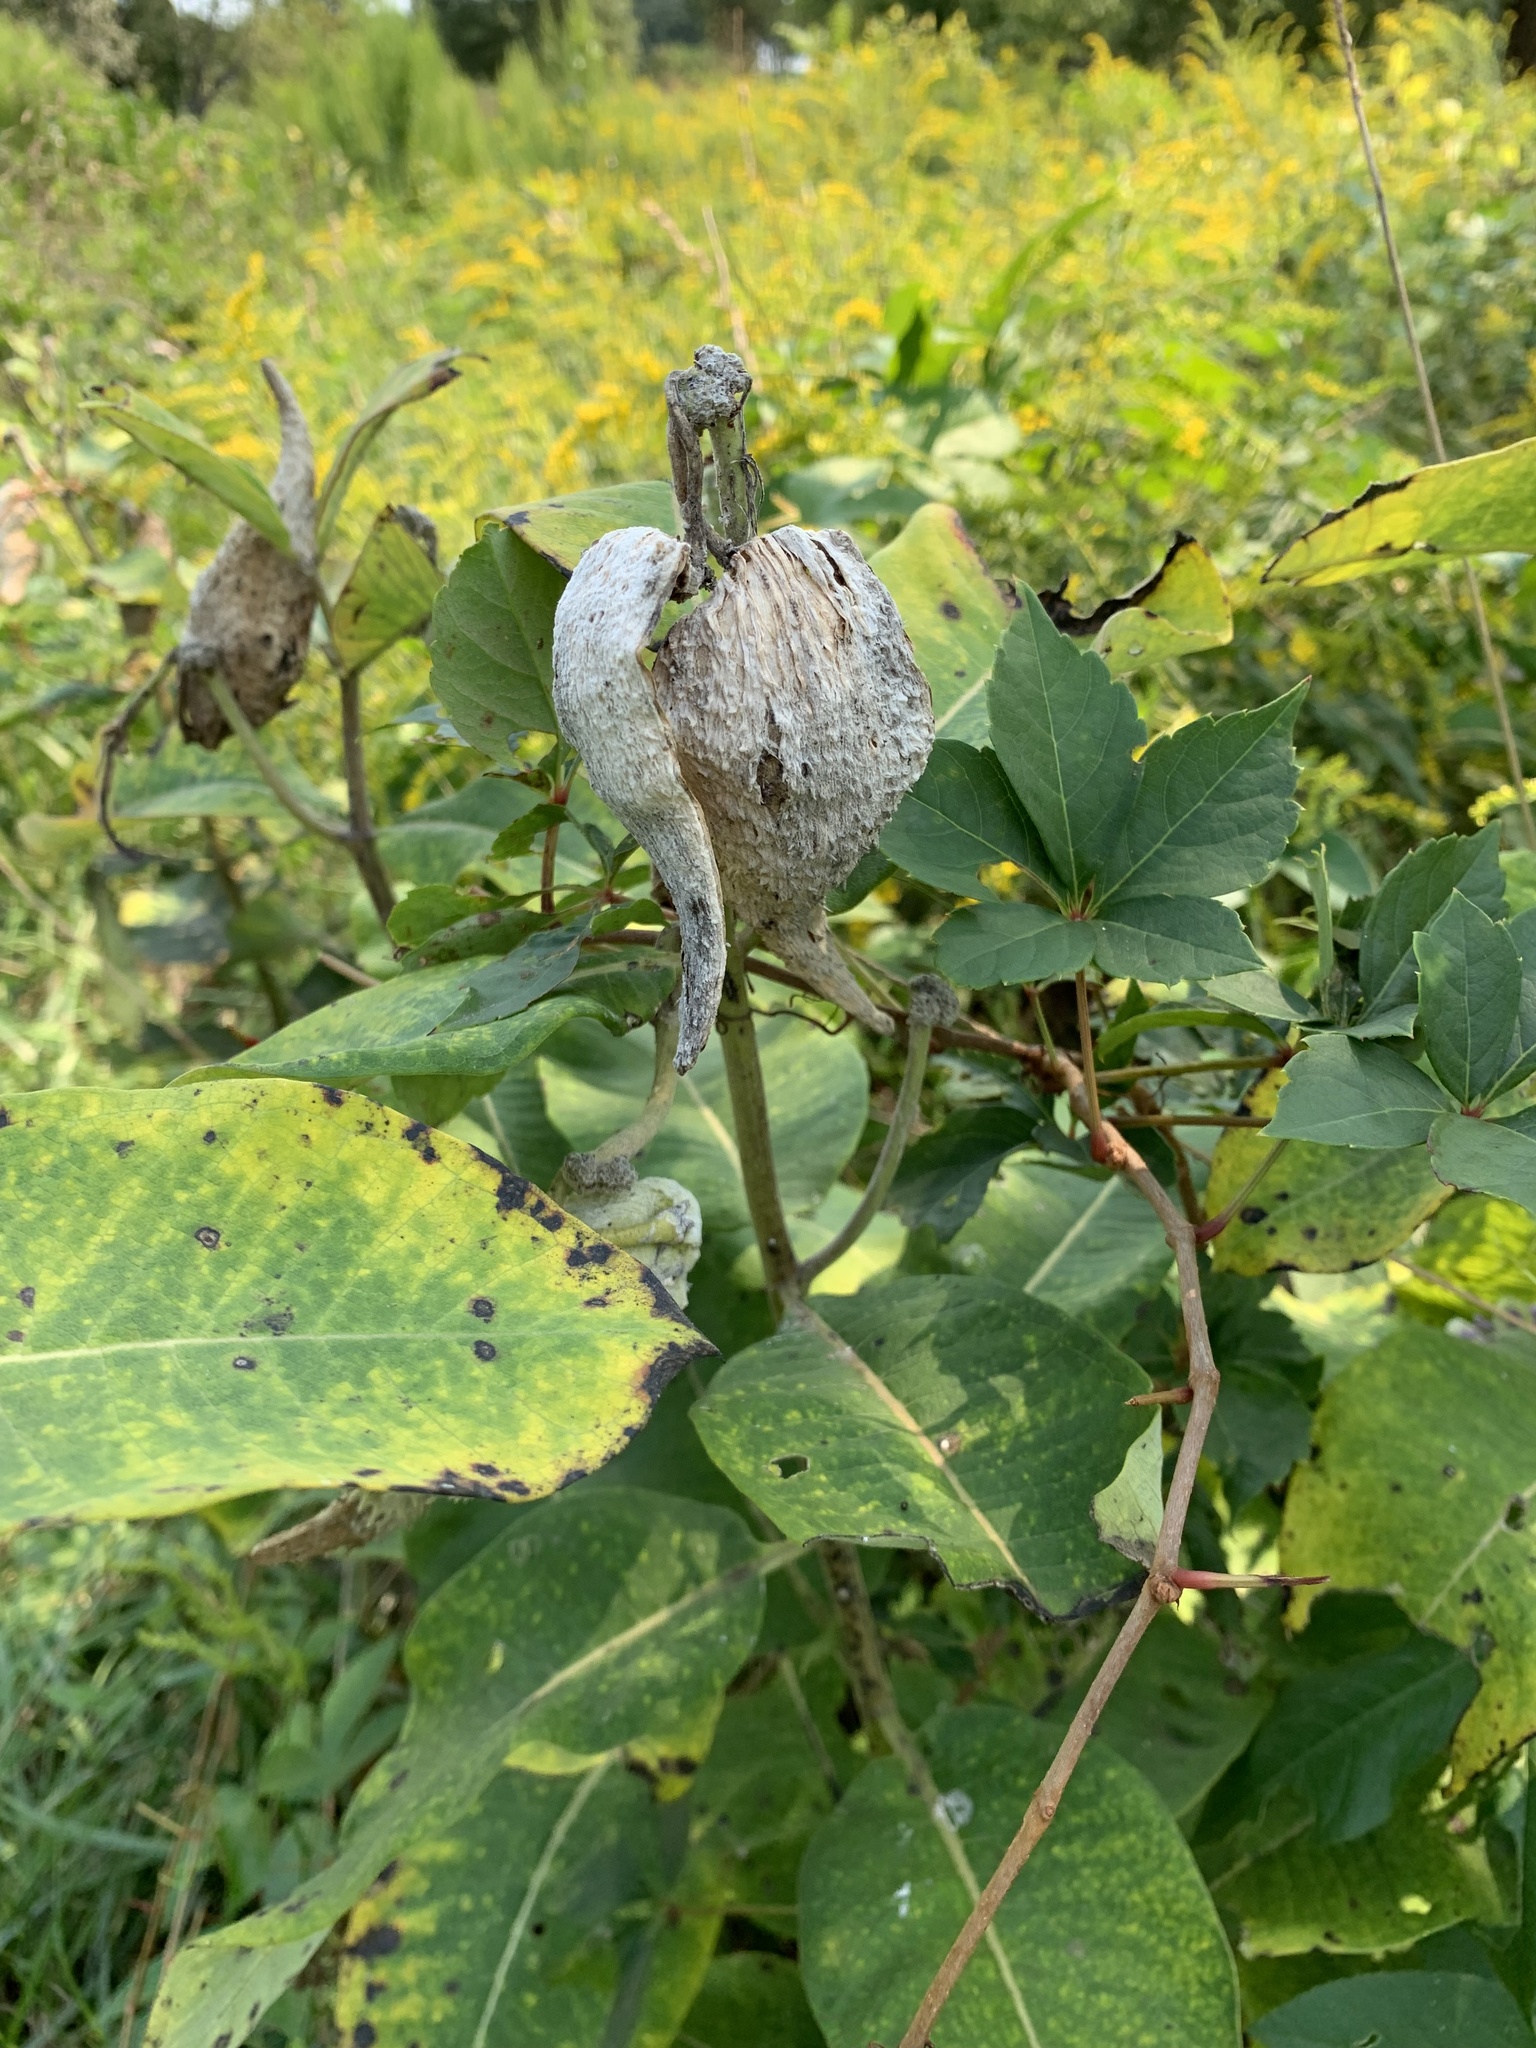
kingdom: Plantae
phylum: Tracheophyta
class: Magnoliopsida
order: Gentianales
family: Apocynaceae
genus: Asclepias
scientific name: Asclepias syriaca
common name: Common milkweed
